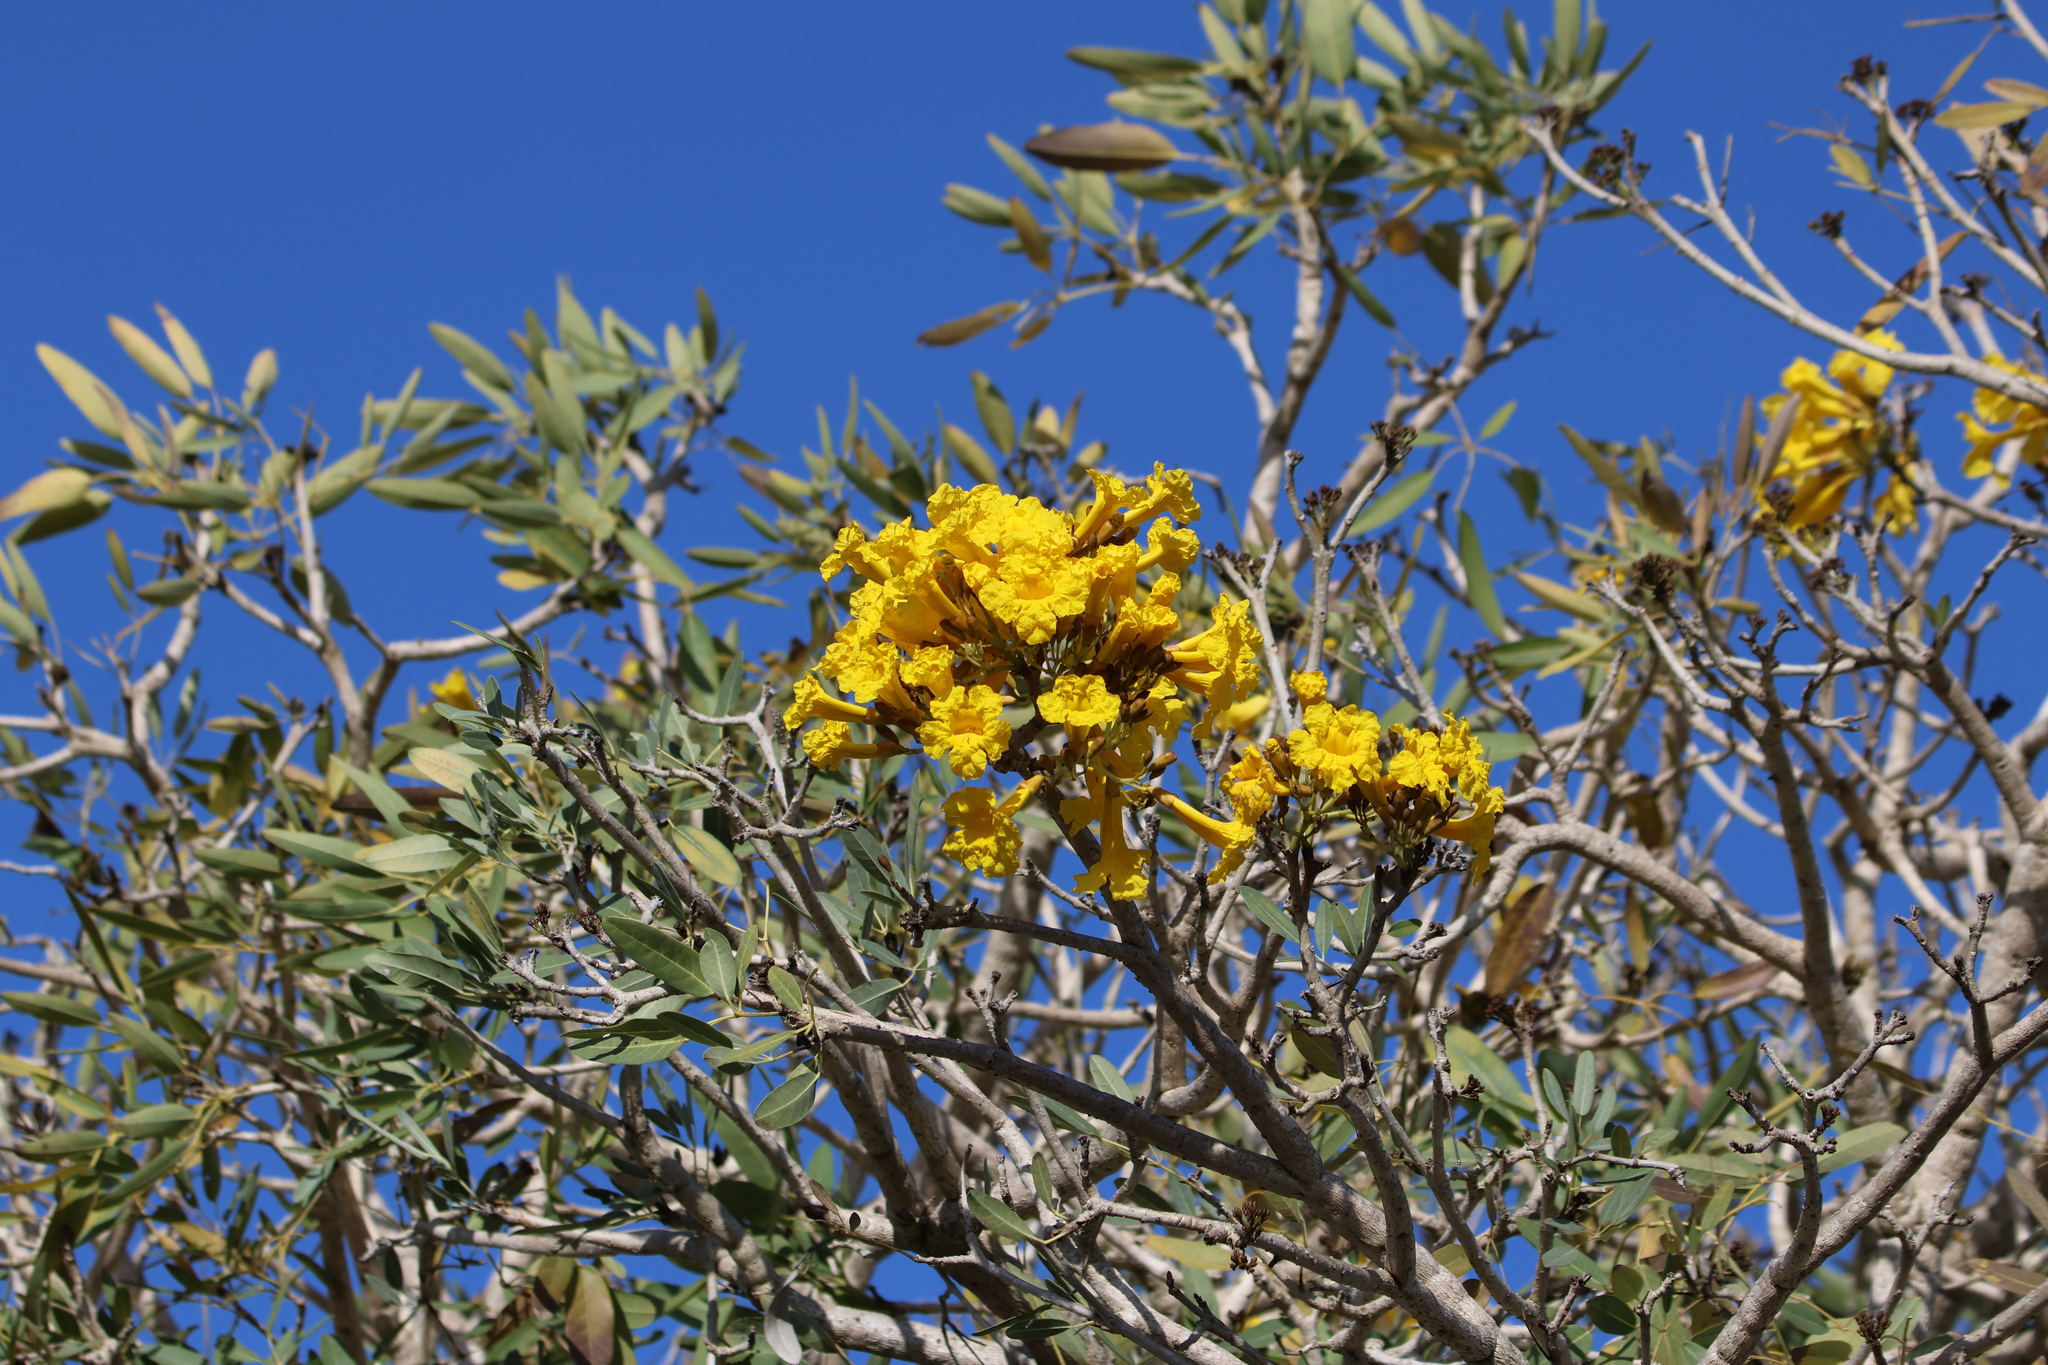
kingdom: Plantae
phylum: Tracheophyta
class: Magnoliopsida
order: Lamiales
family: Bignoniaceae
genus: Tabebuia
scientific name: Tabebuia aurea
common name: Caribbean trumpet-tree
